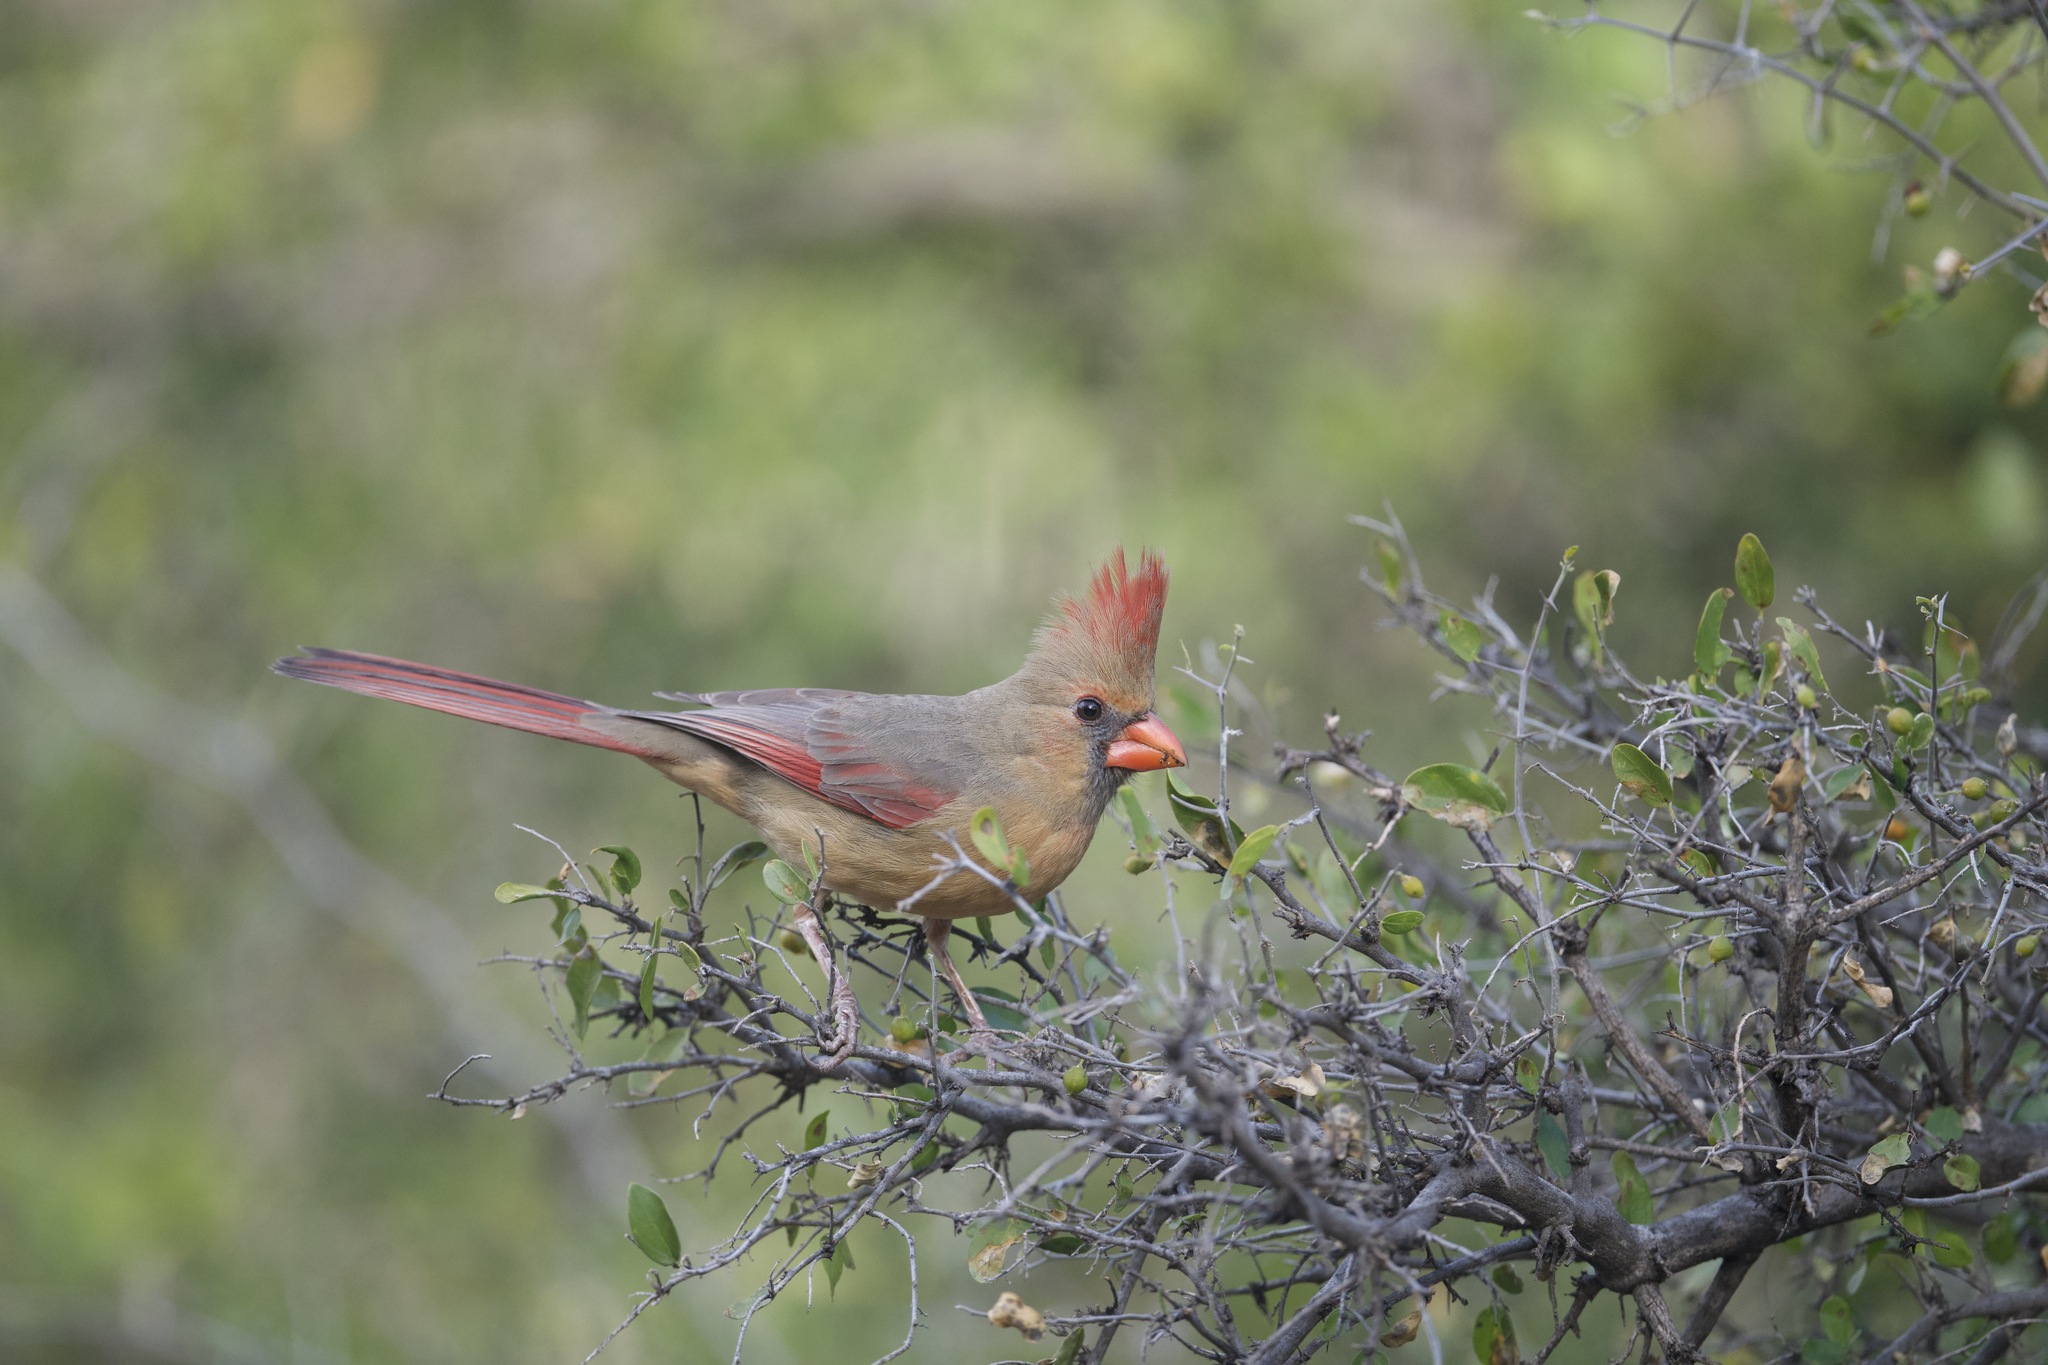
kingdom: Animalia
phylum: Chordata
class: Aves
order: Passeriformes
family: Cardinalidae
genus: Cardinalis
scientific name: Cardinalis cardinalis
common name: Northern cardinal
